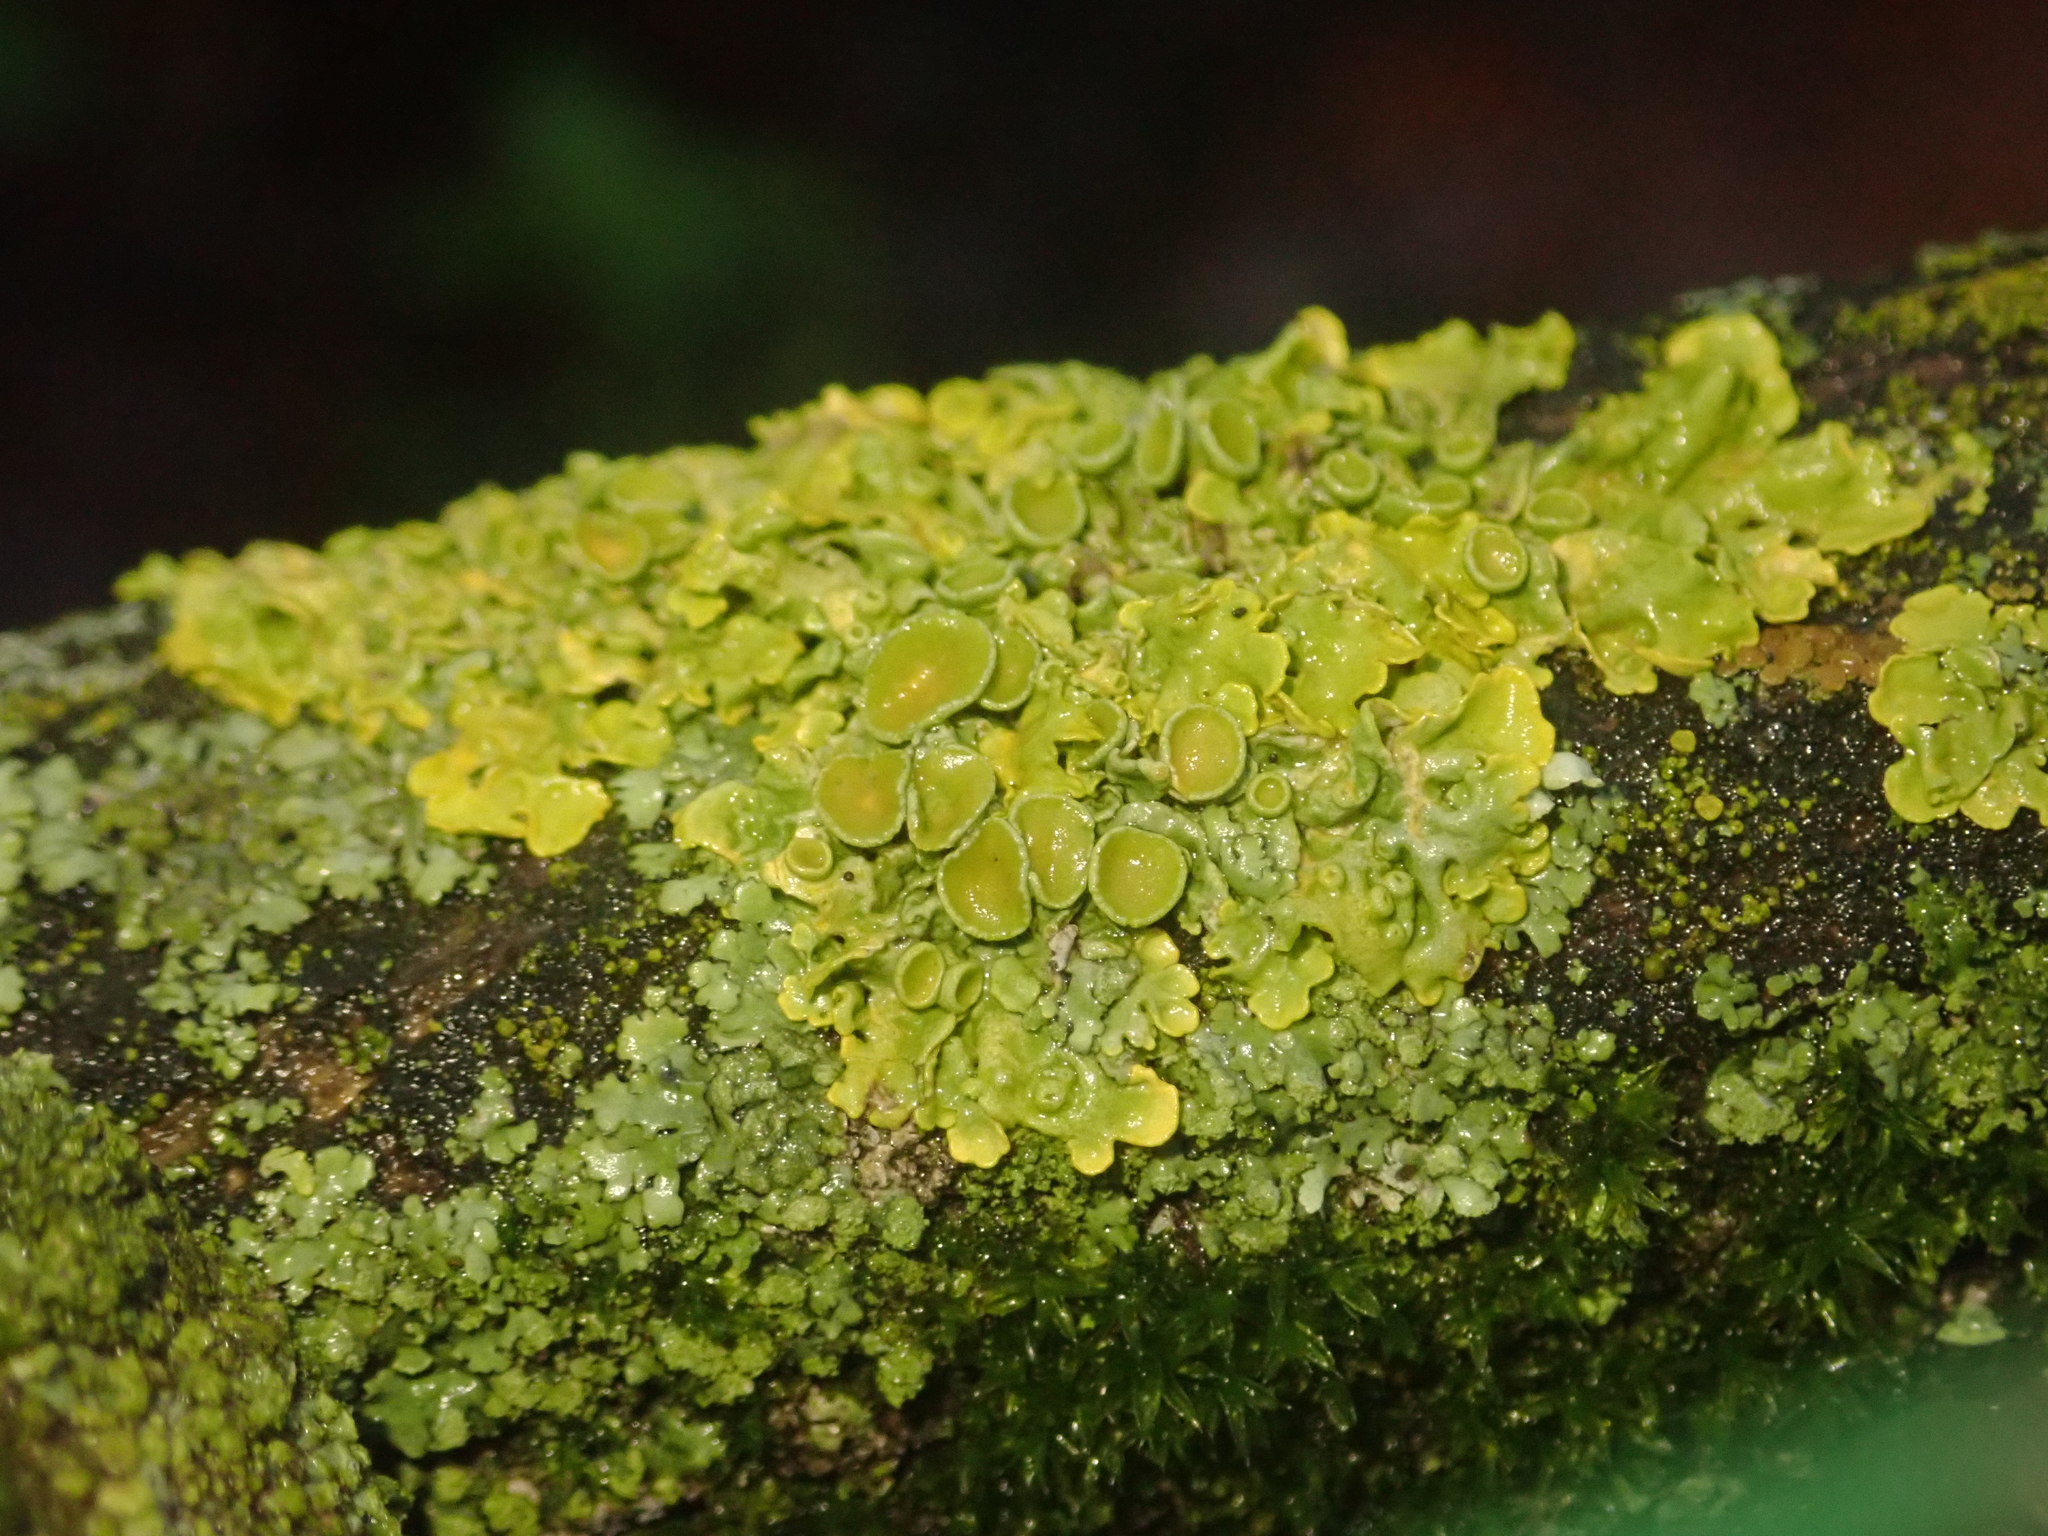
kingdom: Fungi
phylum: Ascomycota
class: Lecanoromycetes
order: Teloschistales
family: Teloschistaceae
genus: Xanthoria
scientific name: Xanthoria parietina
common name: Common orange lichen
